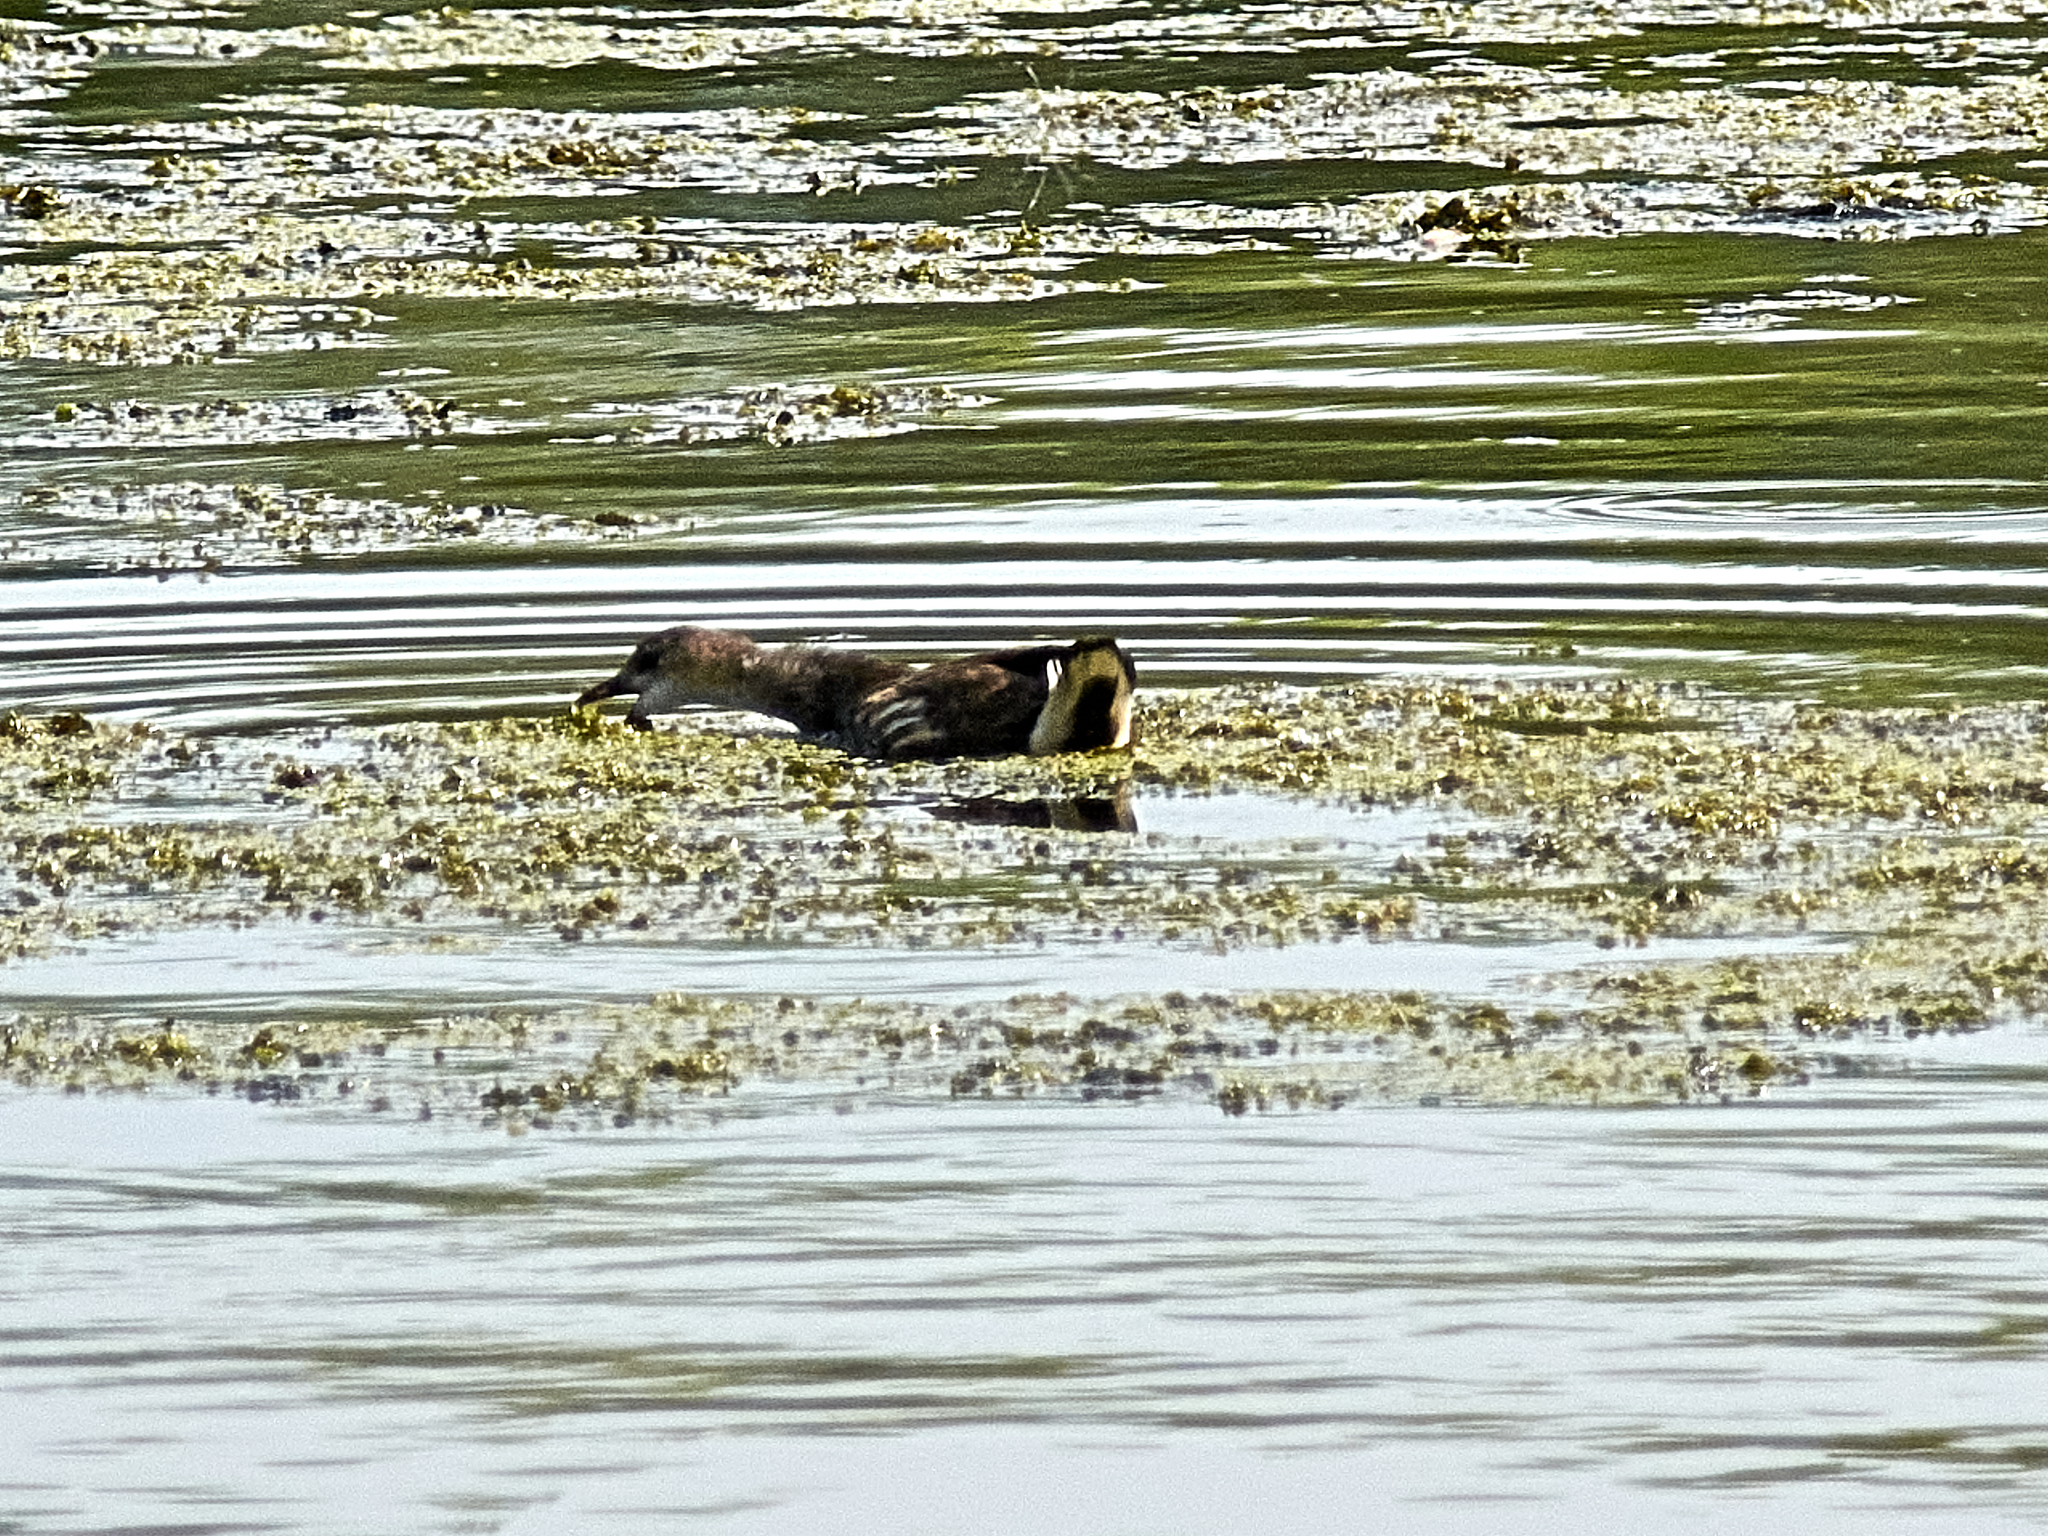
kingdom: Animalia
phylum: Chordata
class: Aves
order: Gruiformes
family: Rallidae
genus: Gallinula
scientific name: Gallinula chloropus
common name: Common moorhen
